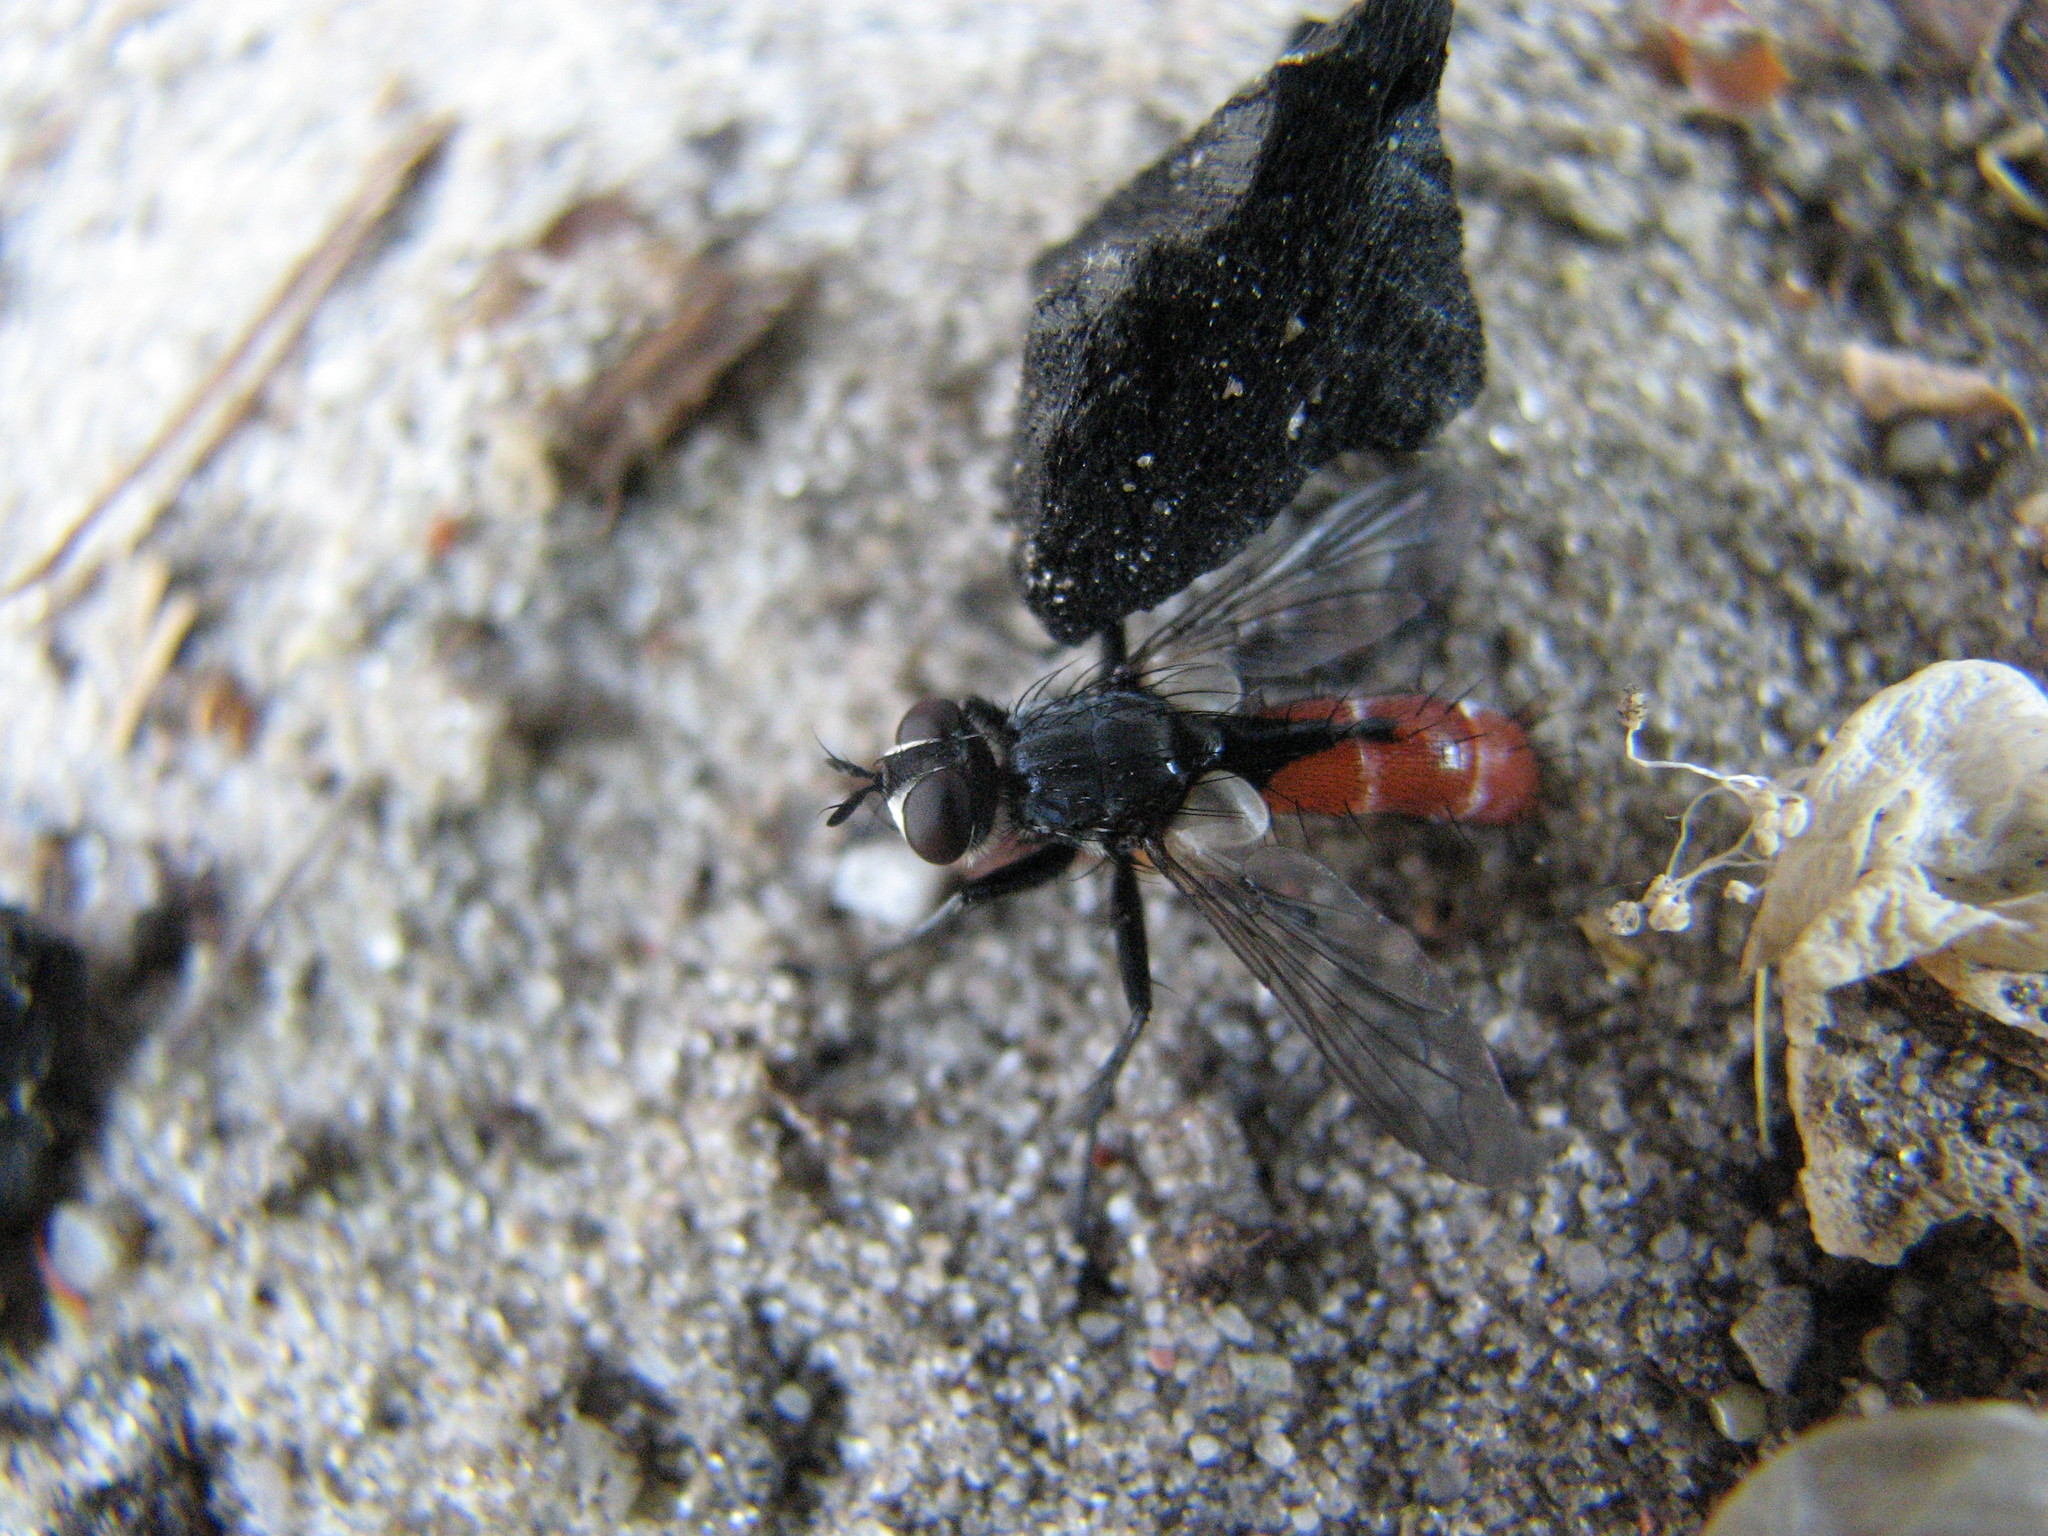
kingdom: Animalia
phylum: Arthropoda
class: Insecta
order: Diptera
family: Tachinidae
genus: Cylindromyia
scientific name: Cylindromyia bicolor
